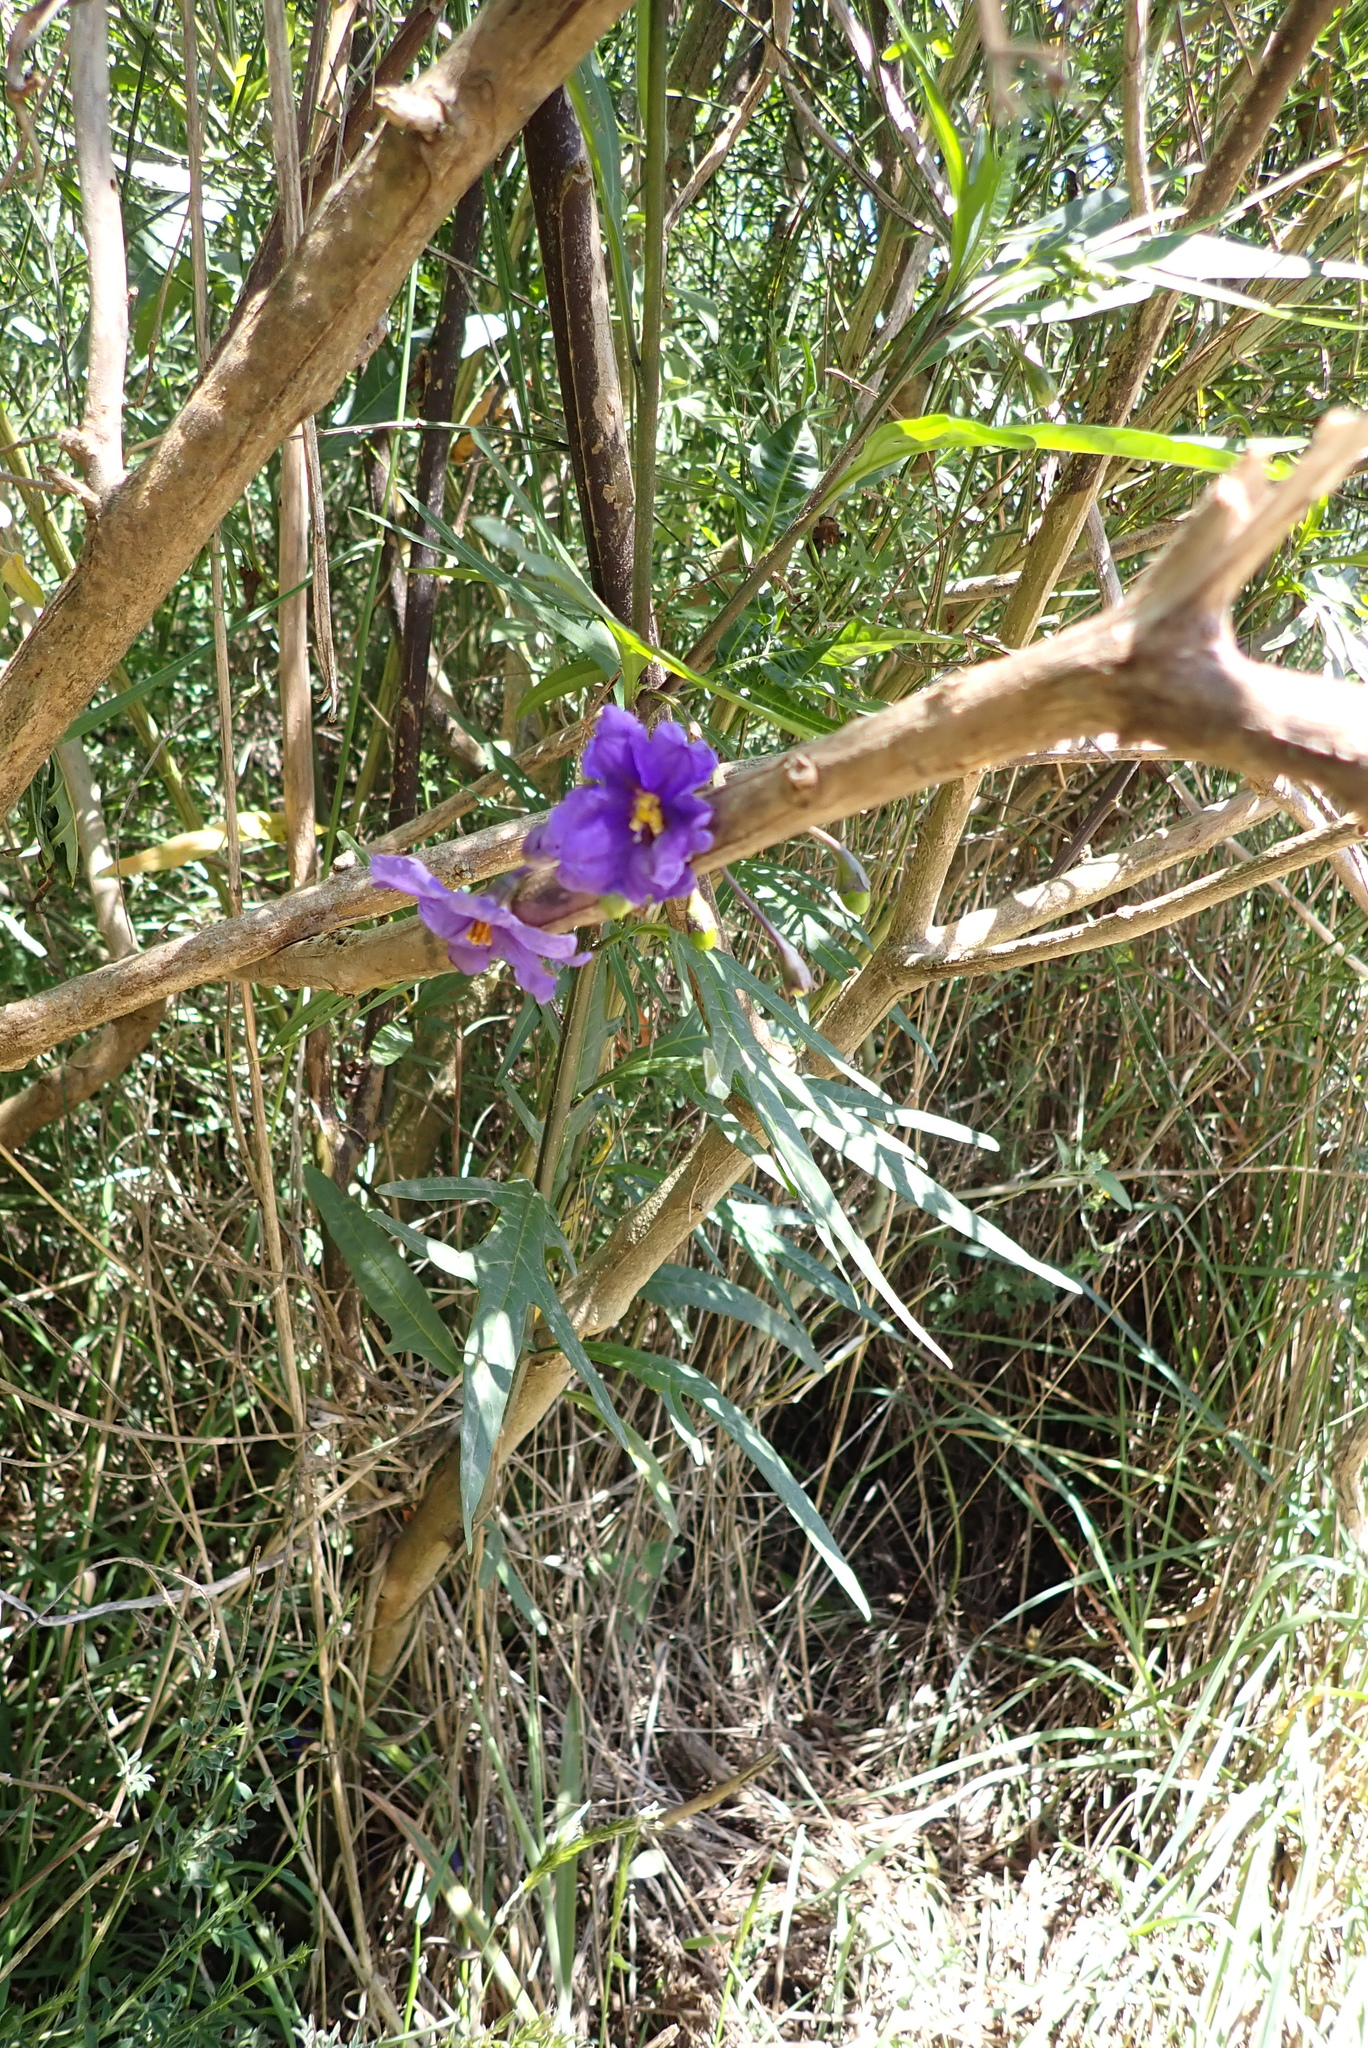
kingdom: Plantae
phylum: Tracheophyta
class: Magnoliopsida
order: Solanales
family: Solanaceae
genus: Solanum
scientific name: Solanum laciniatum
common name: Kangaroo-apple
